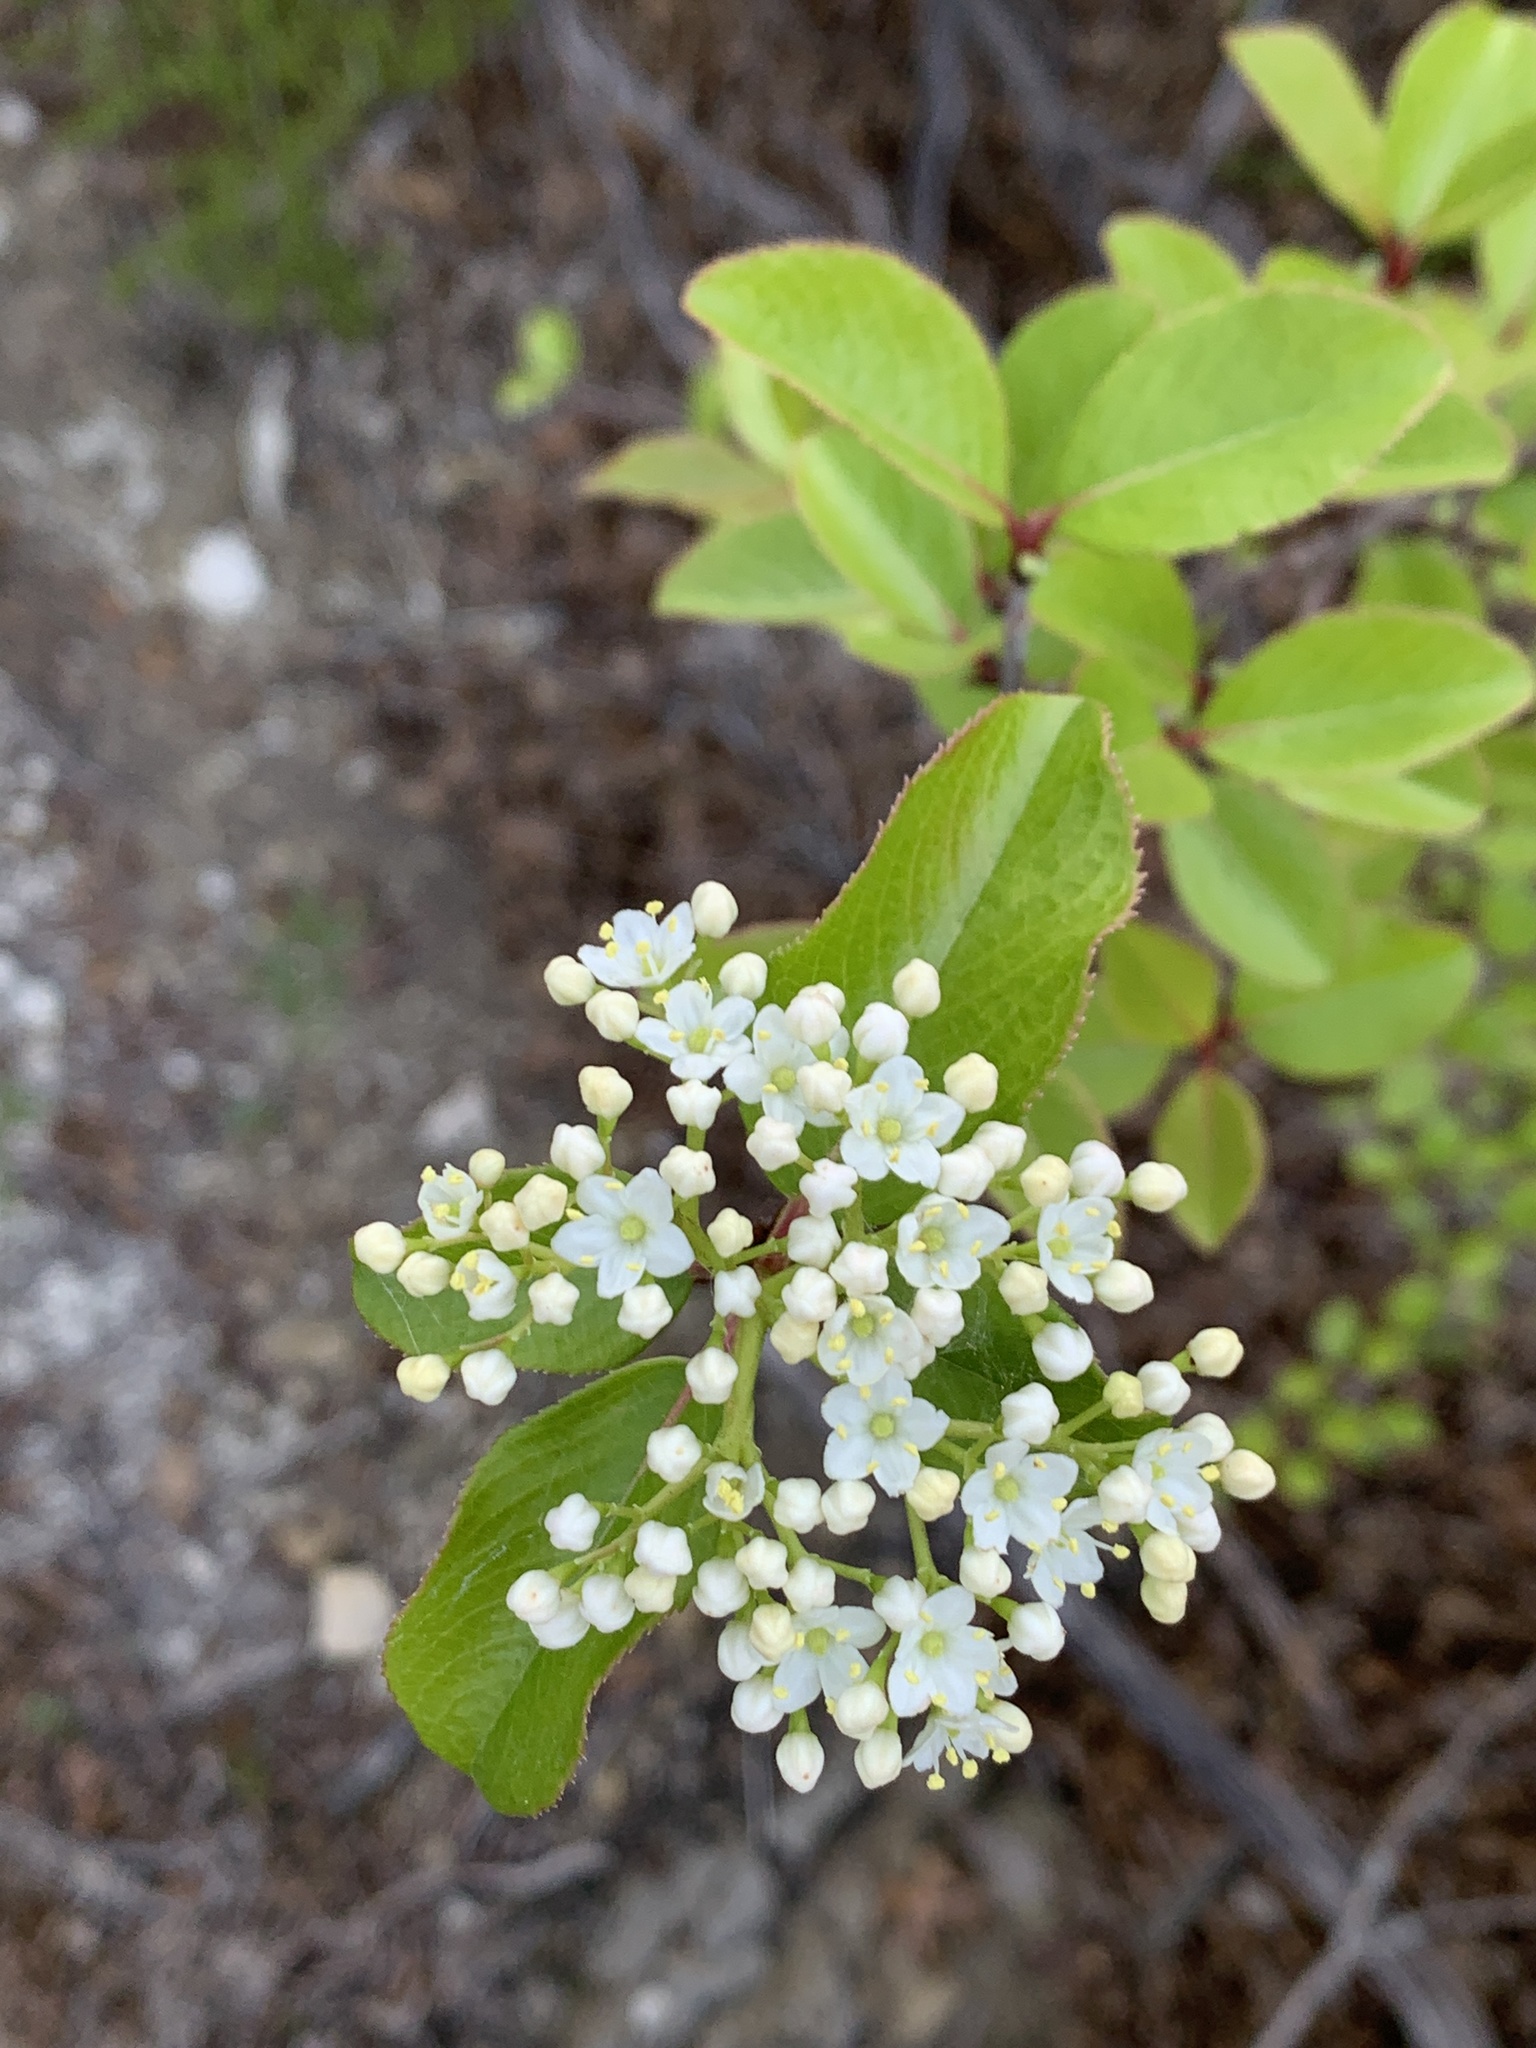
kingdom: Plantae
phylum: Tracheophyta
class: Magnoliopsida
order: Dipsacales
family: Viburnaceae
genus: Viburnum
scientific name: Viburnum rufidulum
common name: Blue haw
